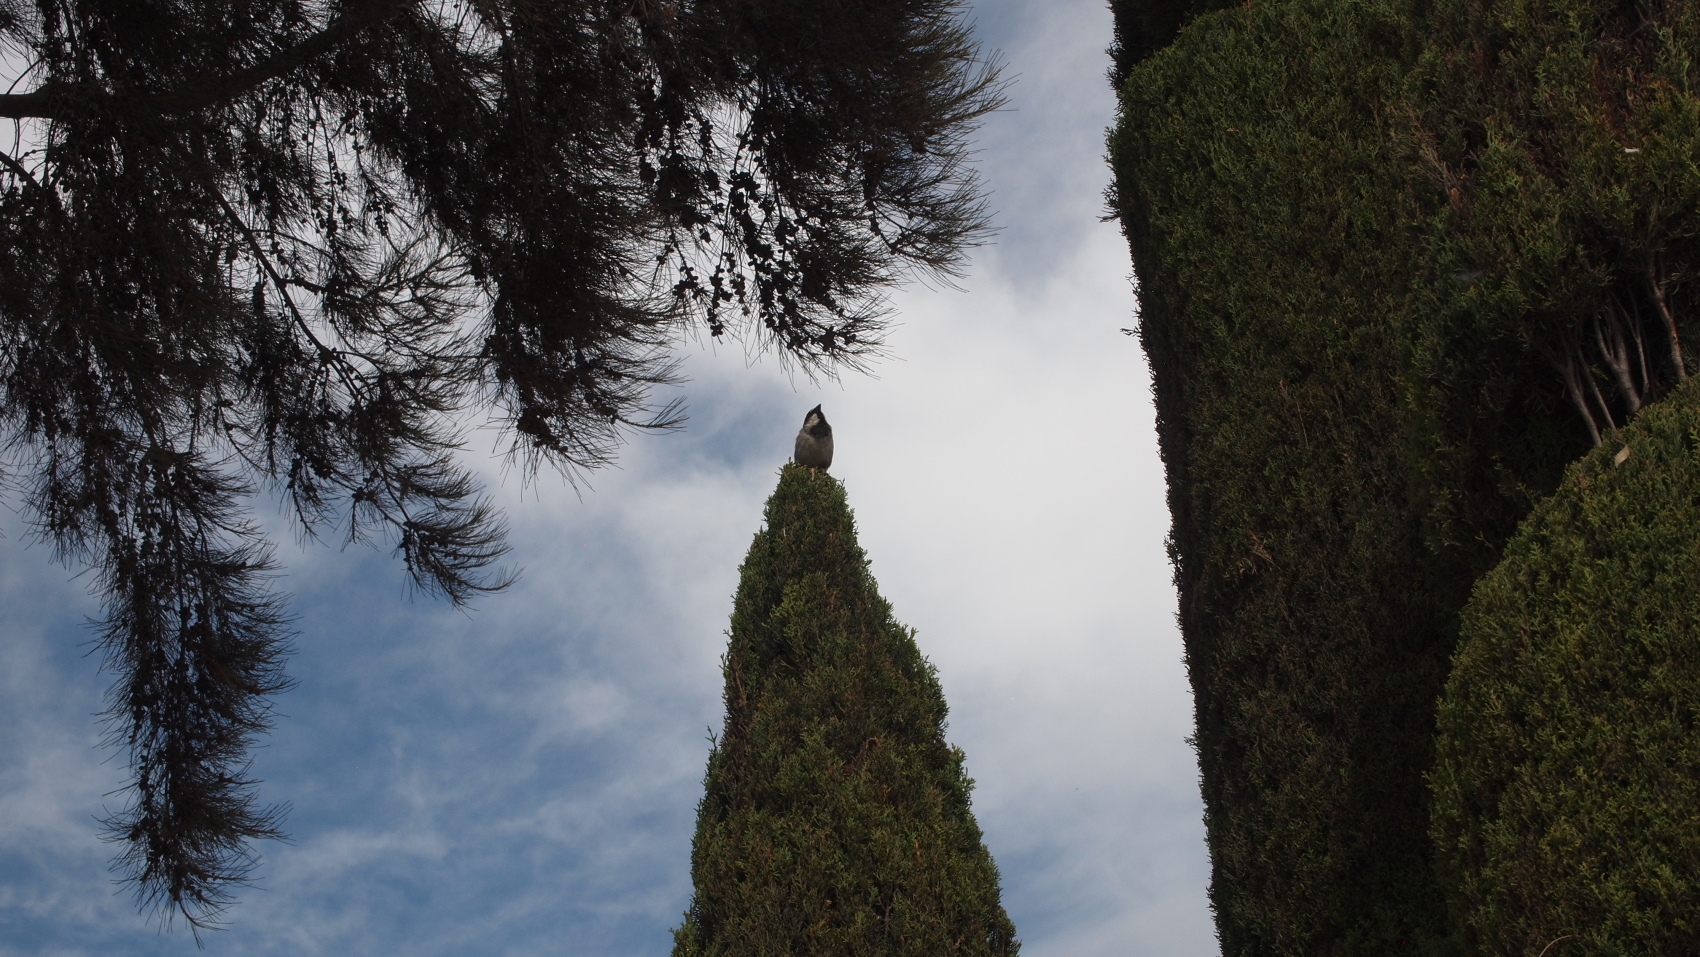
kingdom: Animalia
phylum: Chordata
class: Aves
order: Passeriformes
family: Passeridae
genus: Passer
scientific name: Passer domesticus
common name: House sparrow
